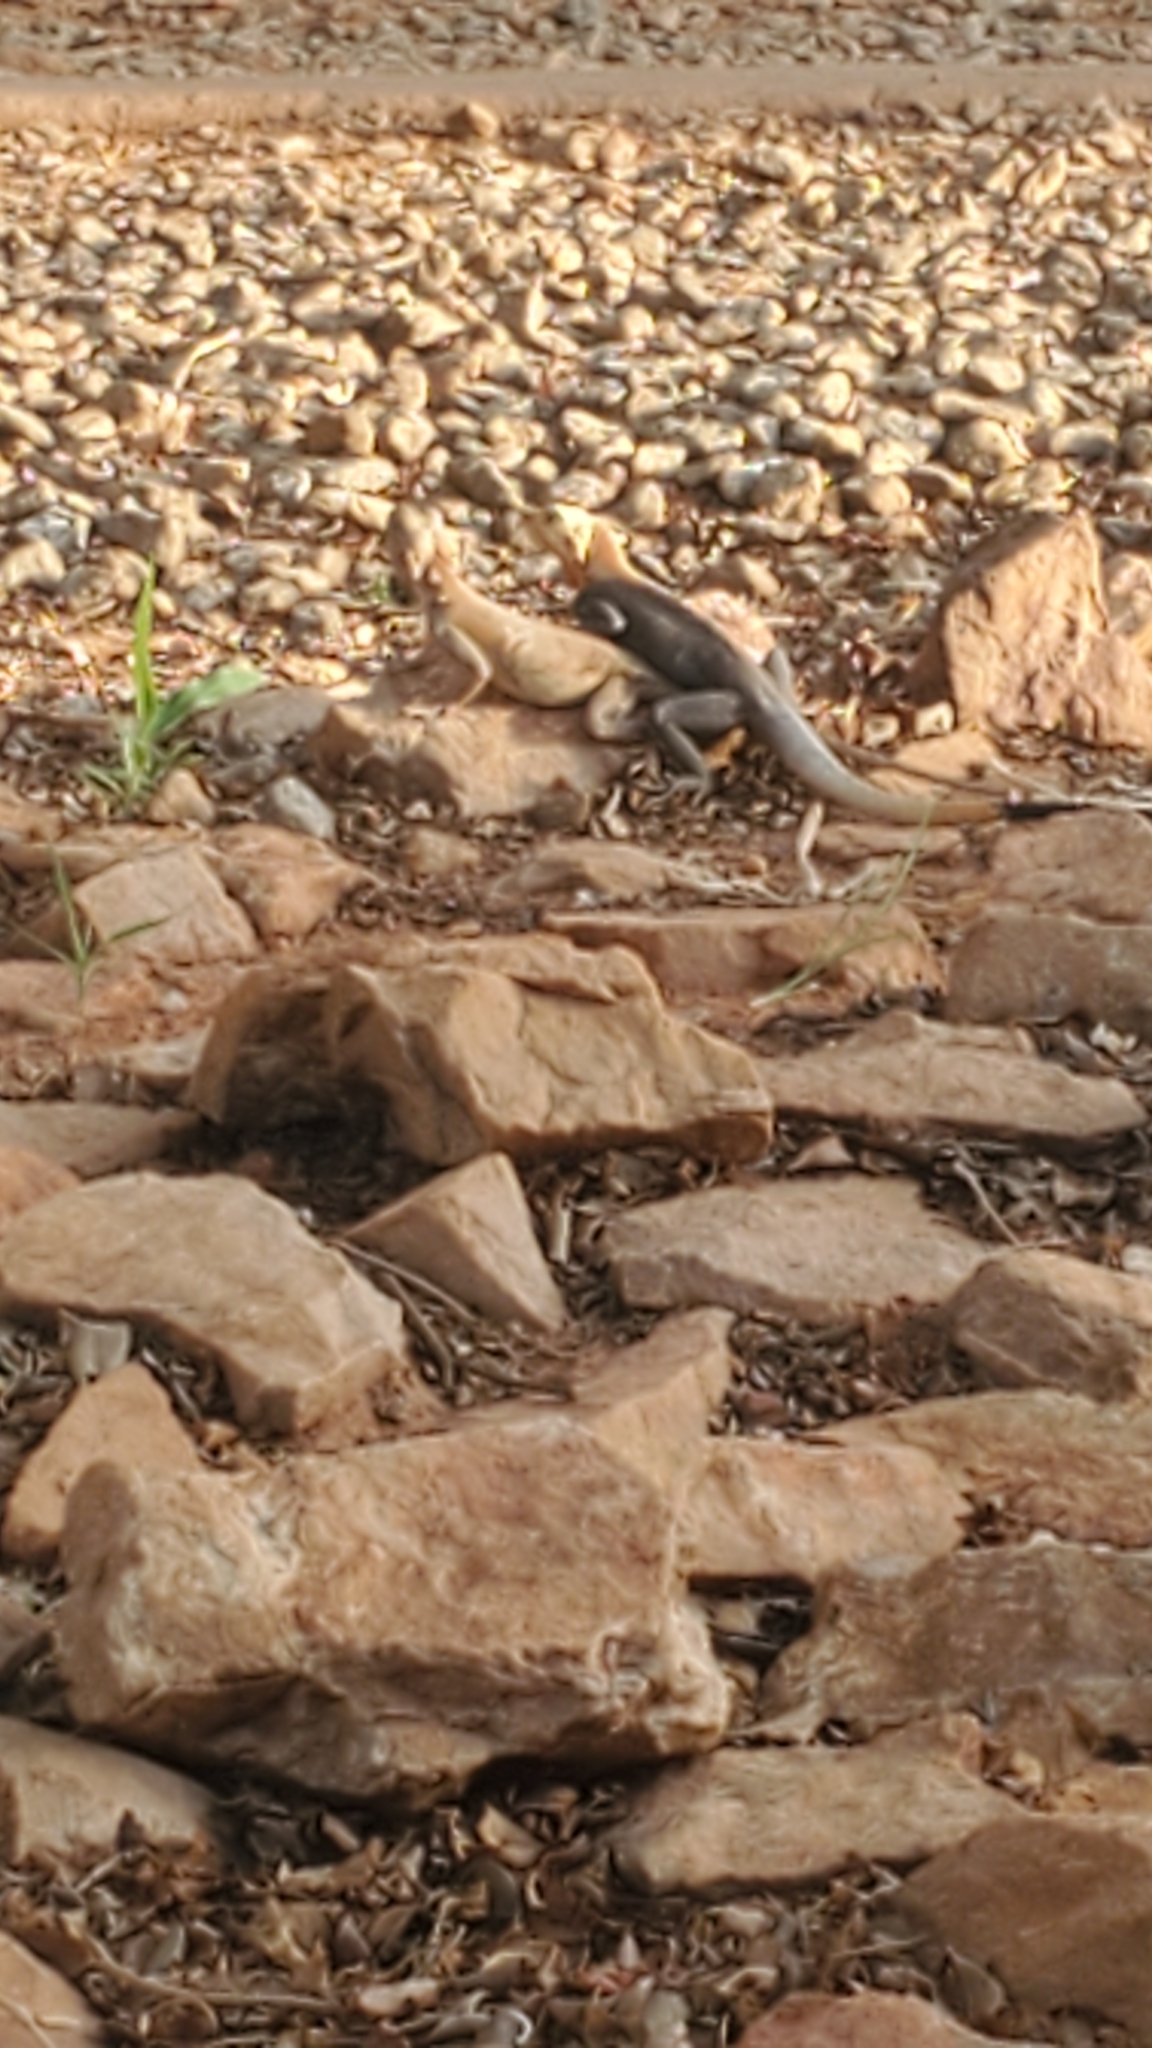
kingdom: Animalia
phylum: Chordata
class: Squamata
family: Agamidae
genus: Agama
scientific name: Agama paragama
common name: False agama
